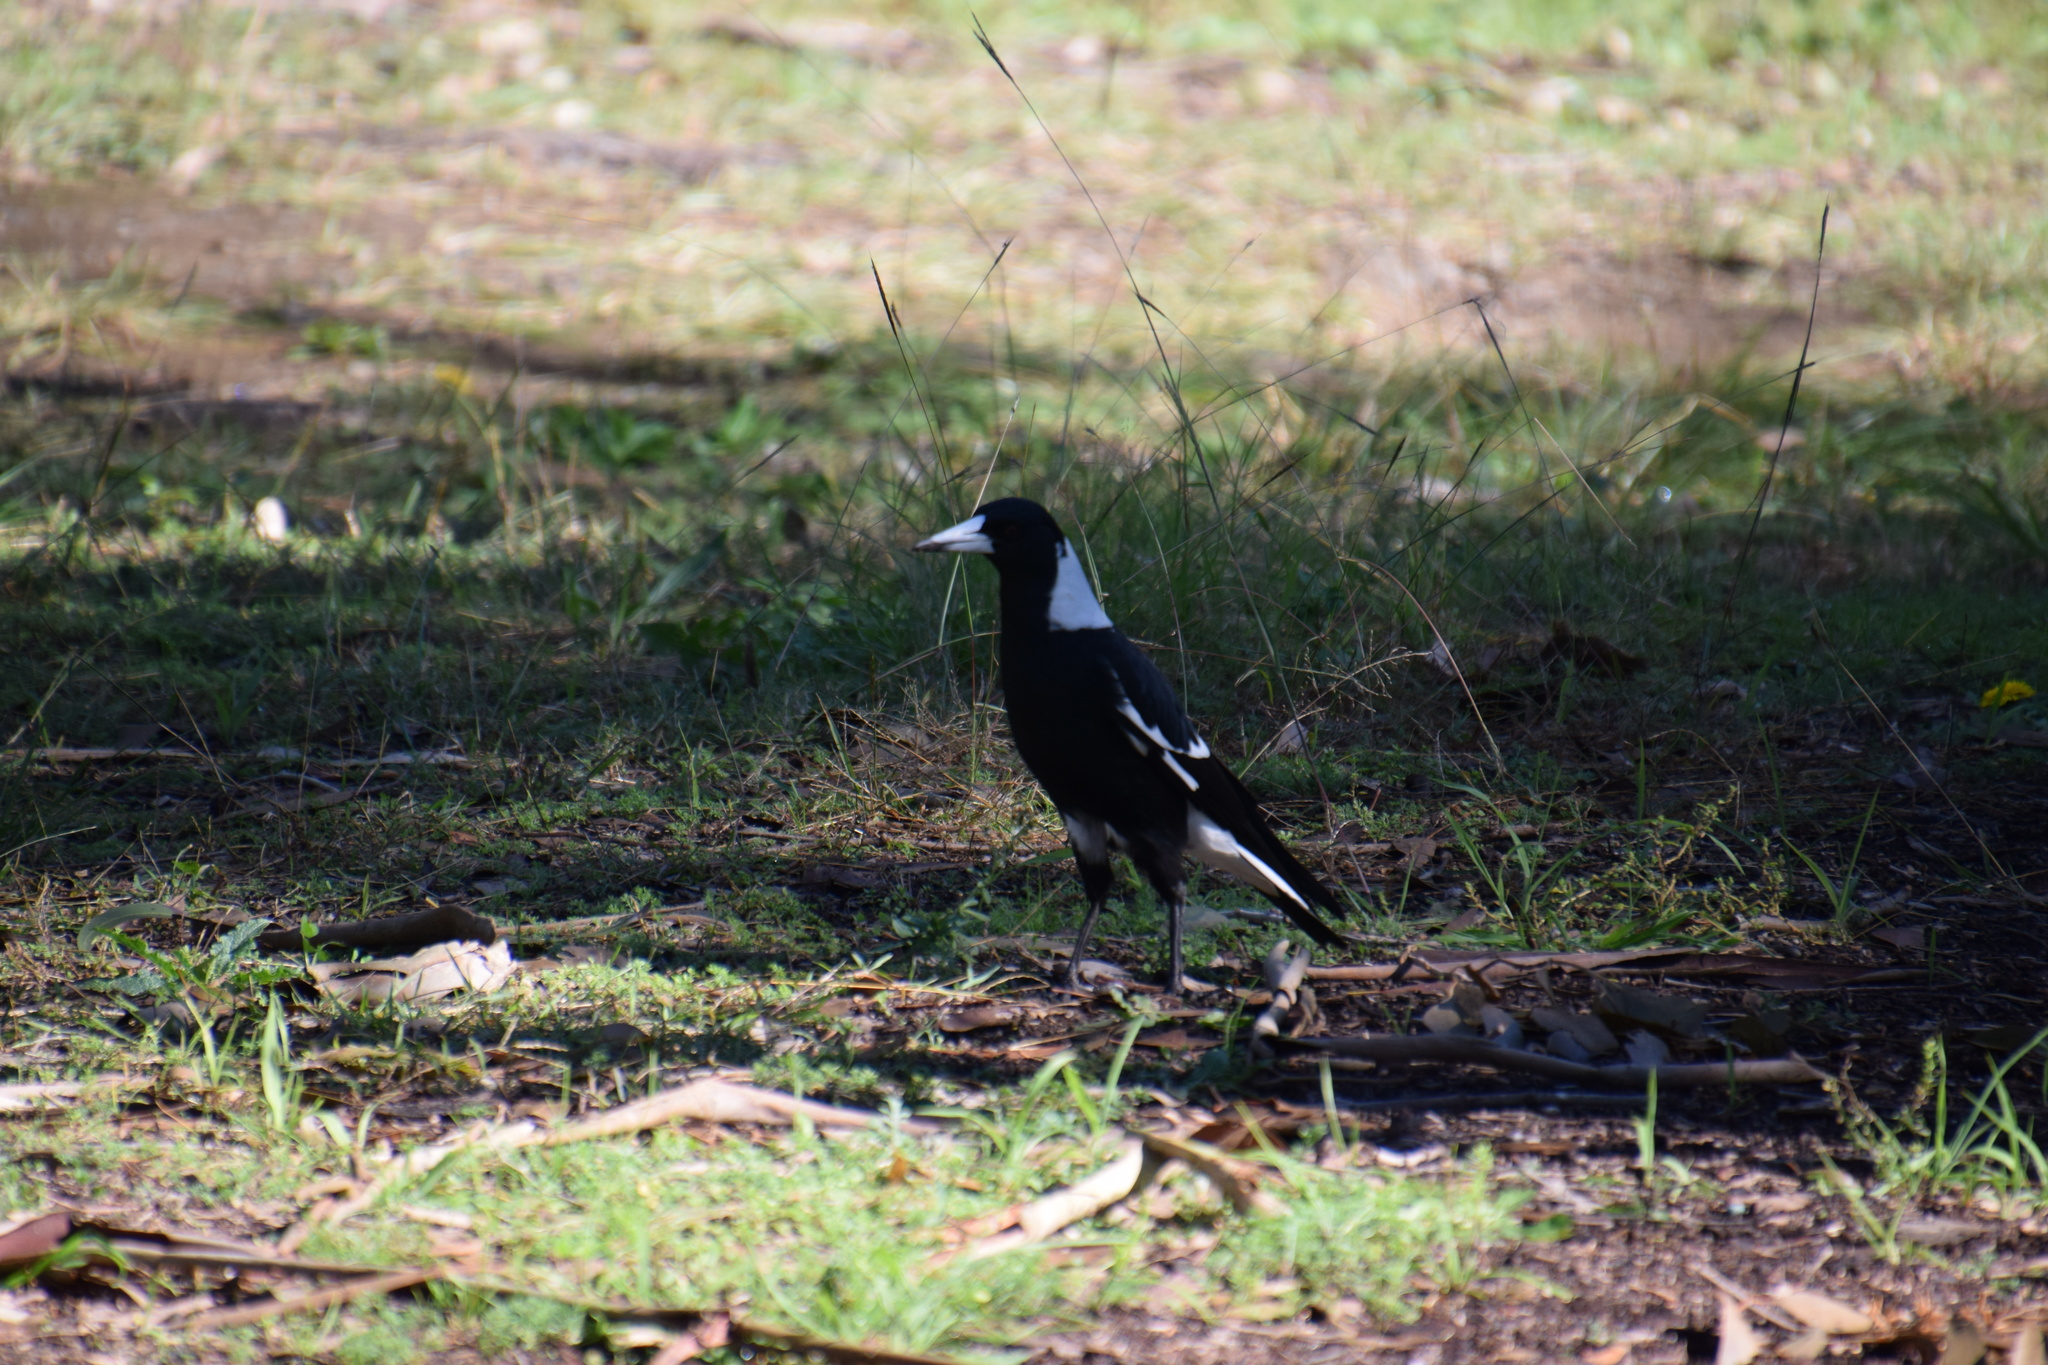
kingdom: Animalia
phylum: Chordata
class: Aves
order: Passeriformes
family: Cracticidae
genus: Gymnorhina
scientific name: Gymnorhina tibicen
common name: Australian magpie
